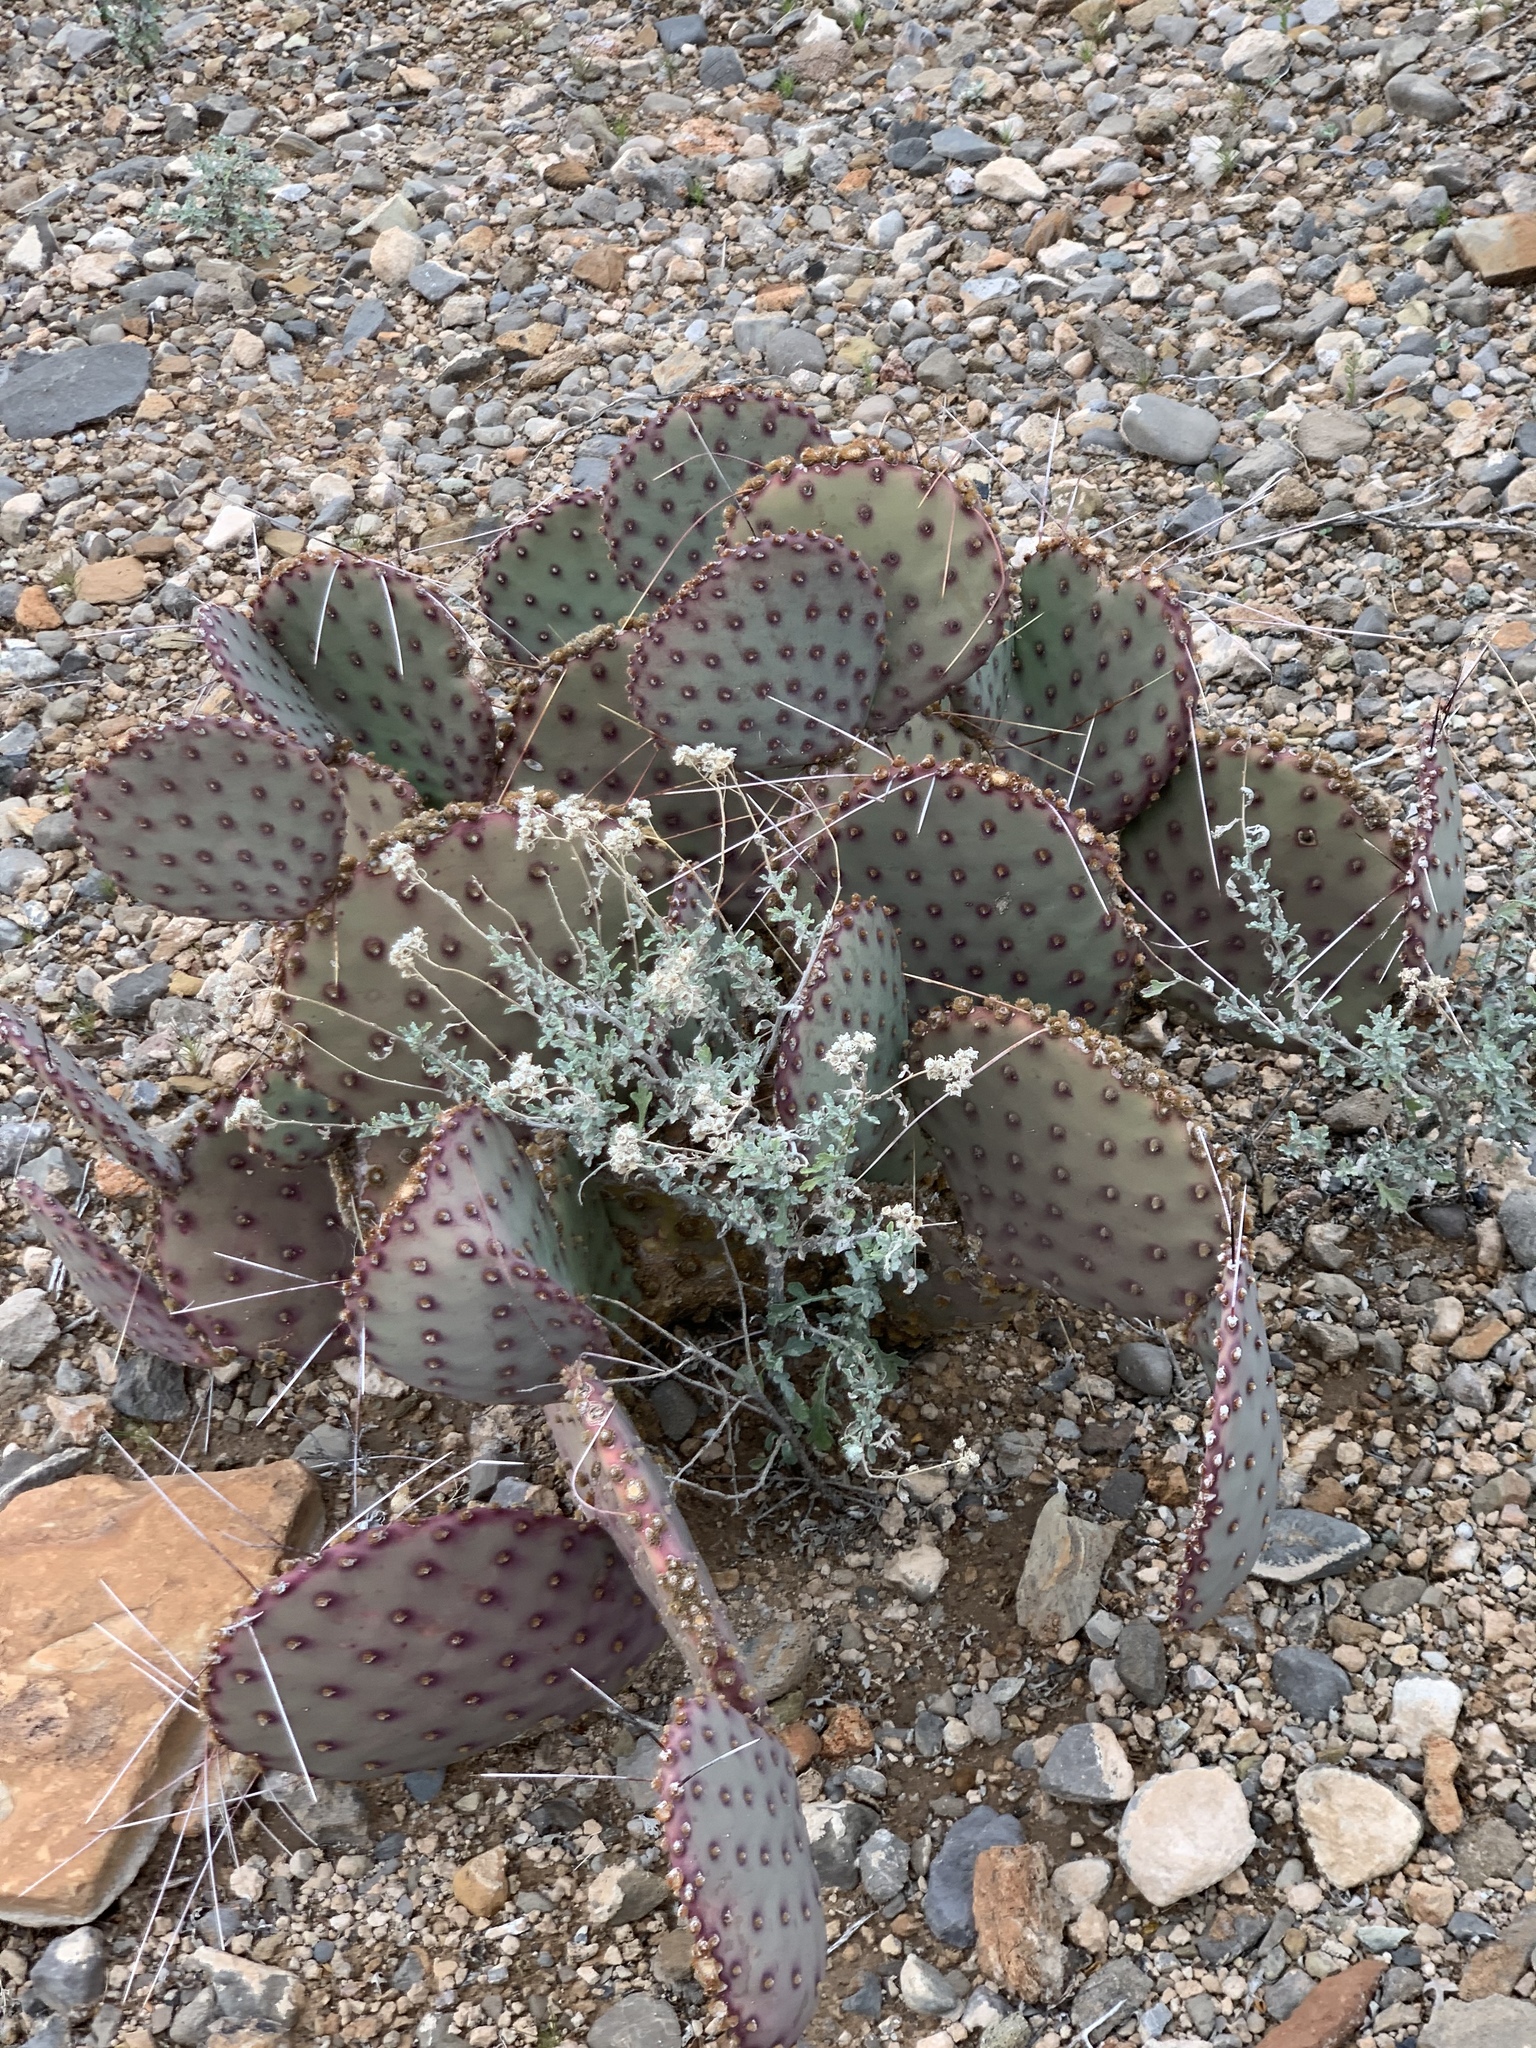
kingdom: Plantae
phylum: Tracheophyta
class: Magnoliopsida
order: Caryophyllales
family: Cactaceae
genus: Opuntia
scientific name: Opuntia macrocentra
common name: Purple prickly-pear
